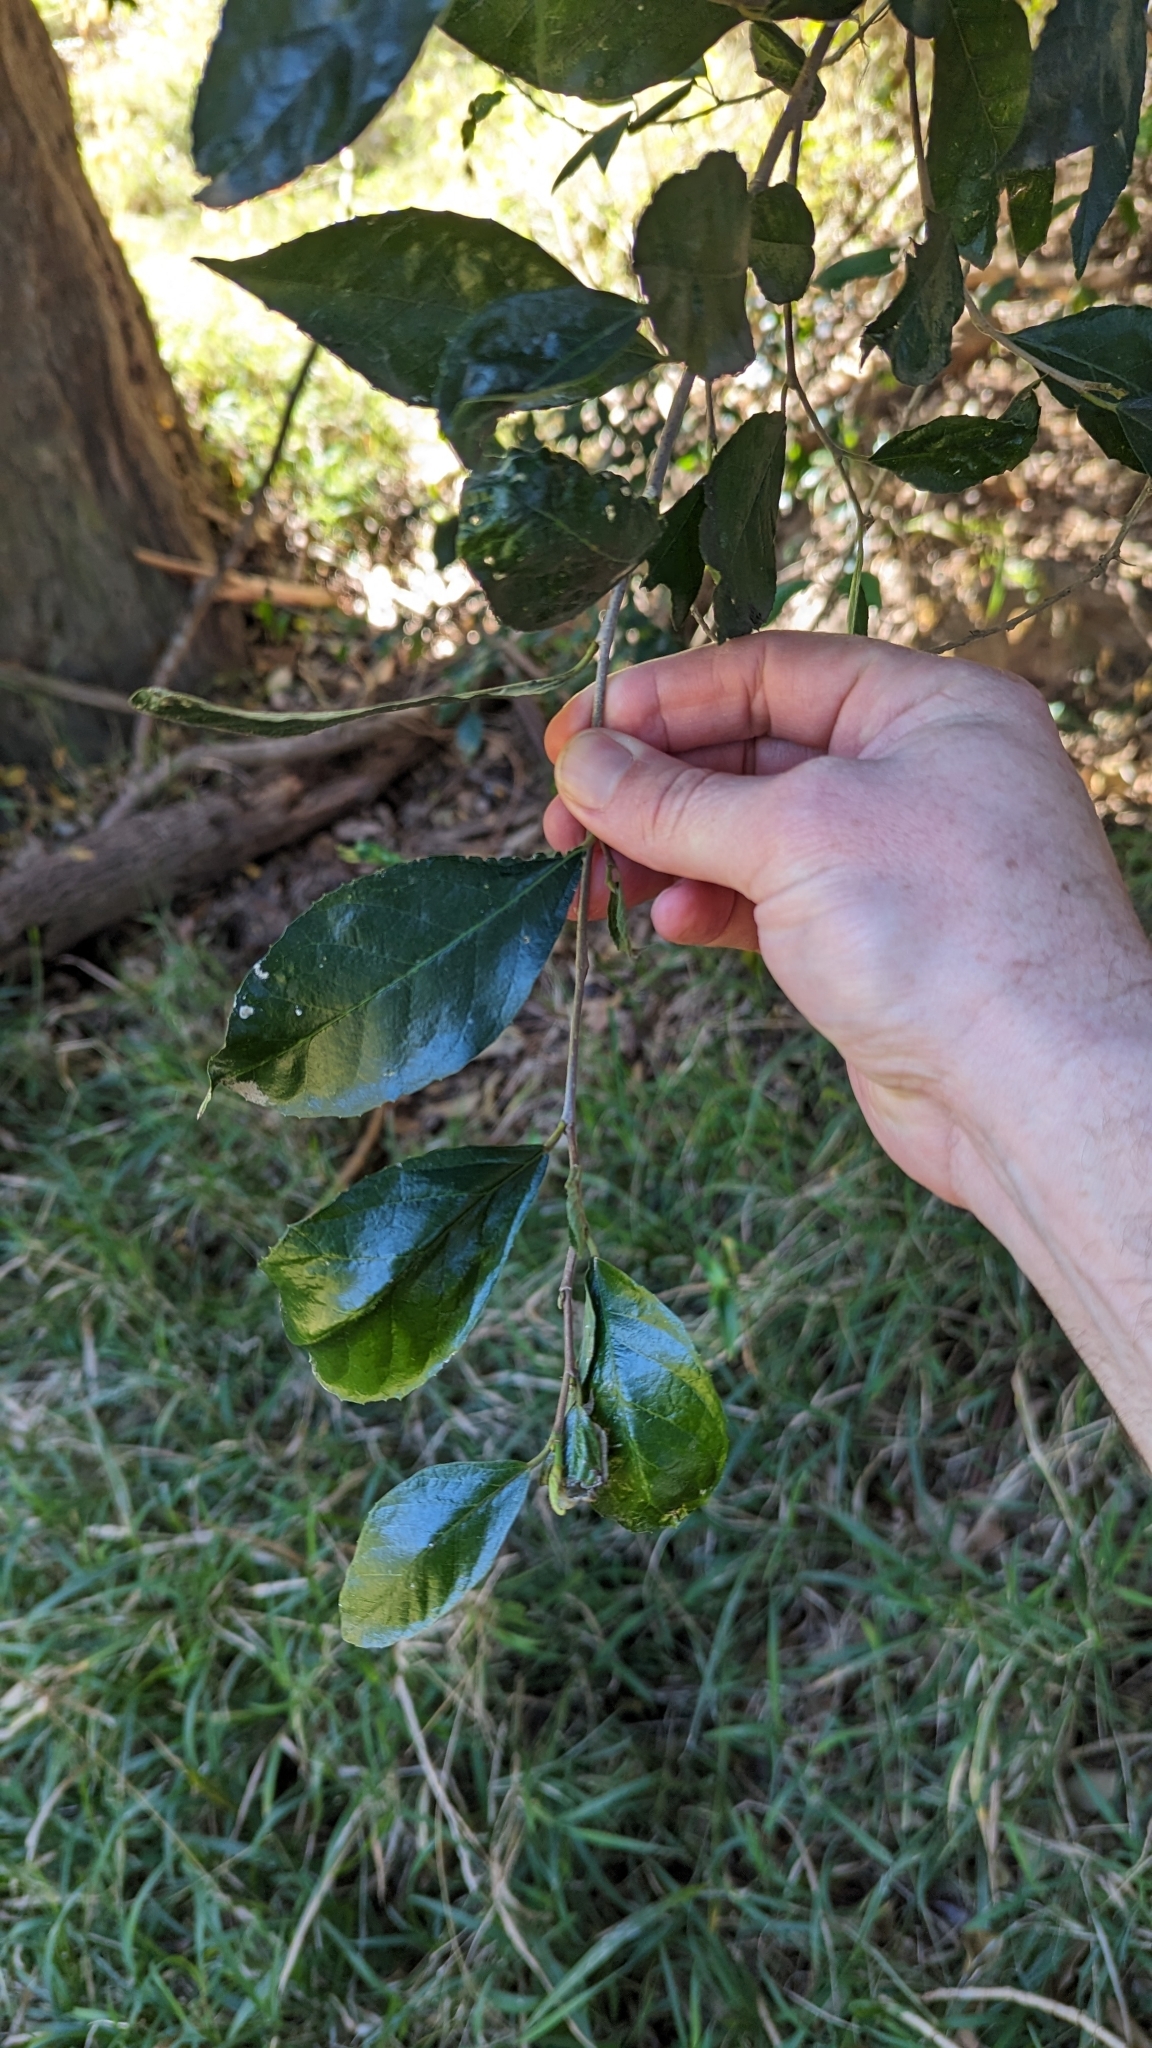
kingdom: Plantae
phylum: Tracheophyta
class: Magnoliopsida
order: Rosales
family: Moraceae
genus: Paratrophis
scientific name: Paratrophis pendulina
